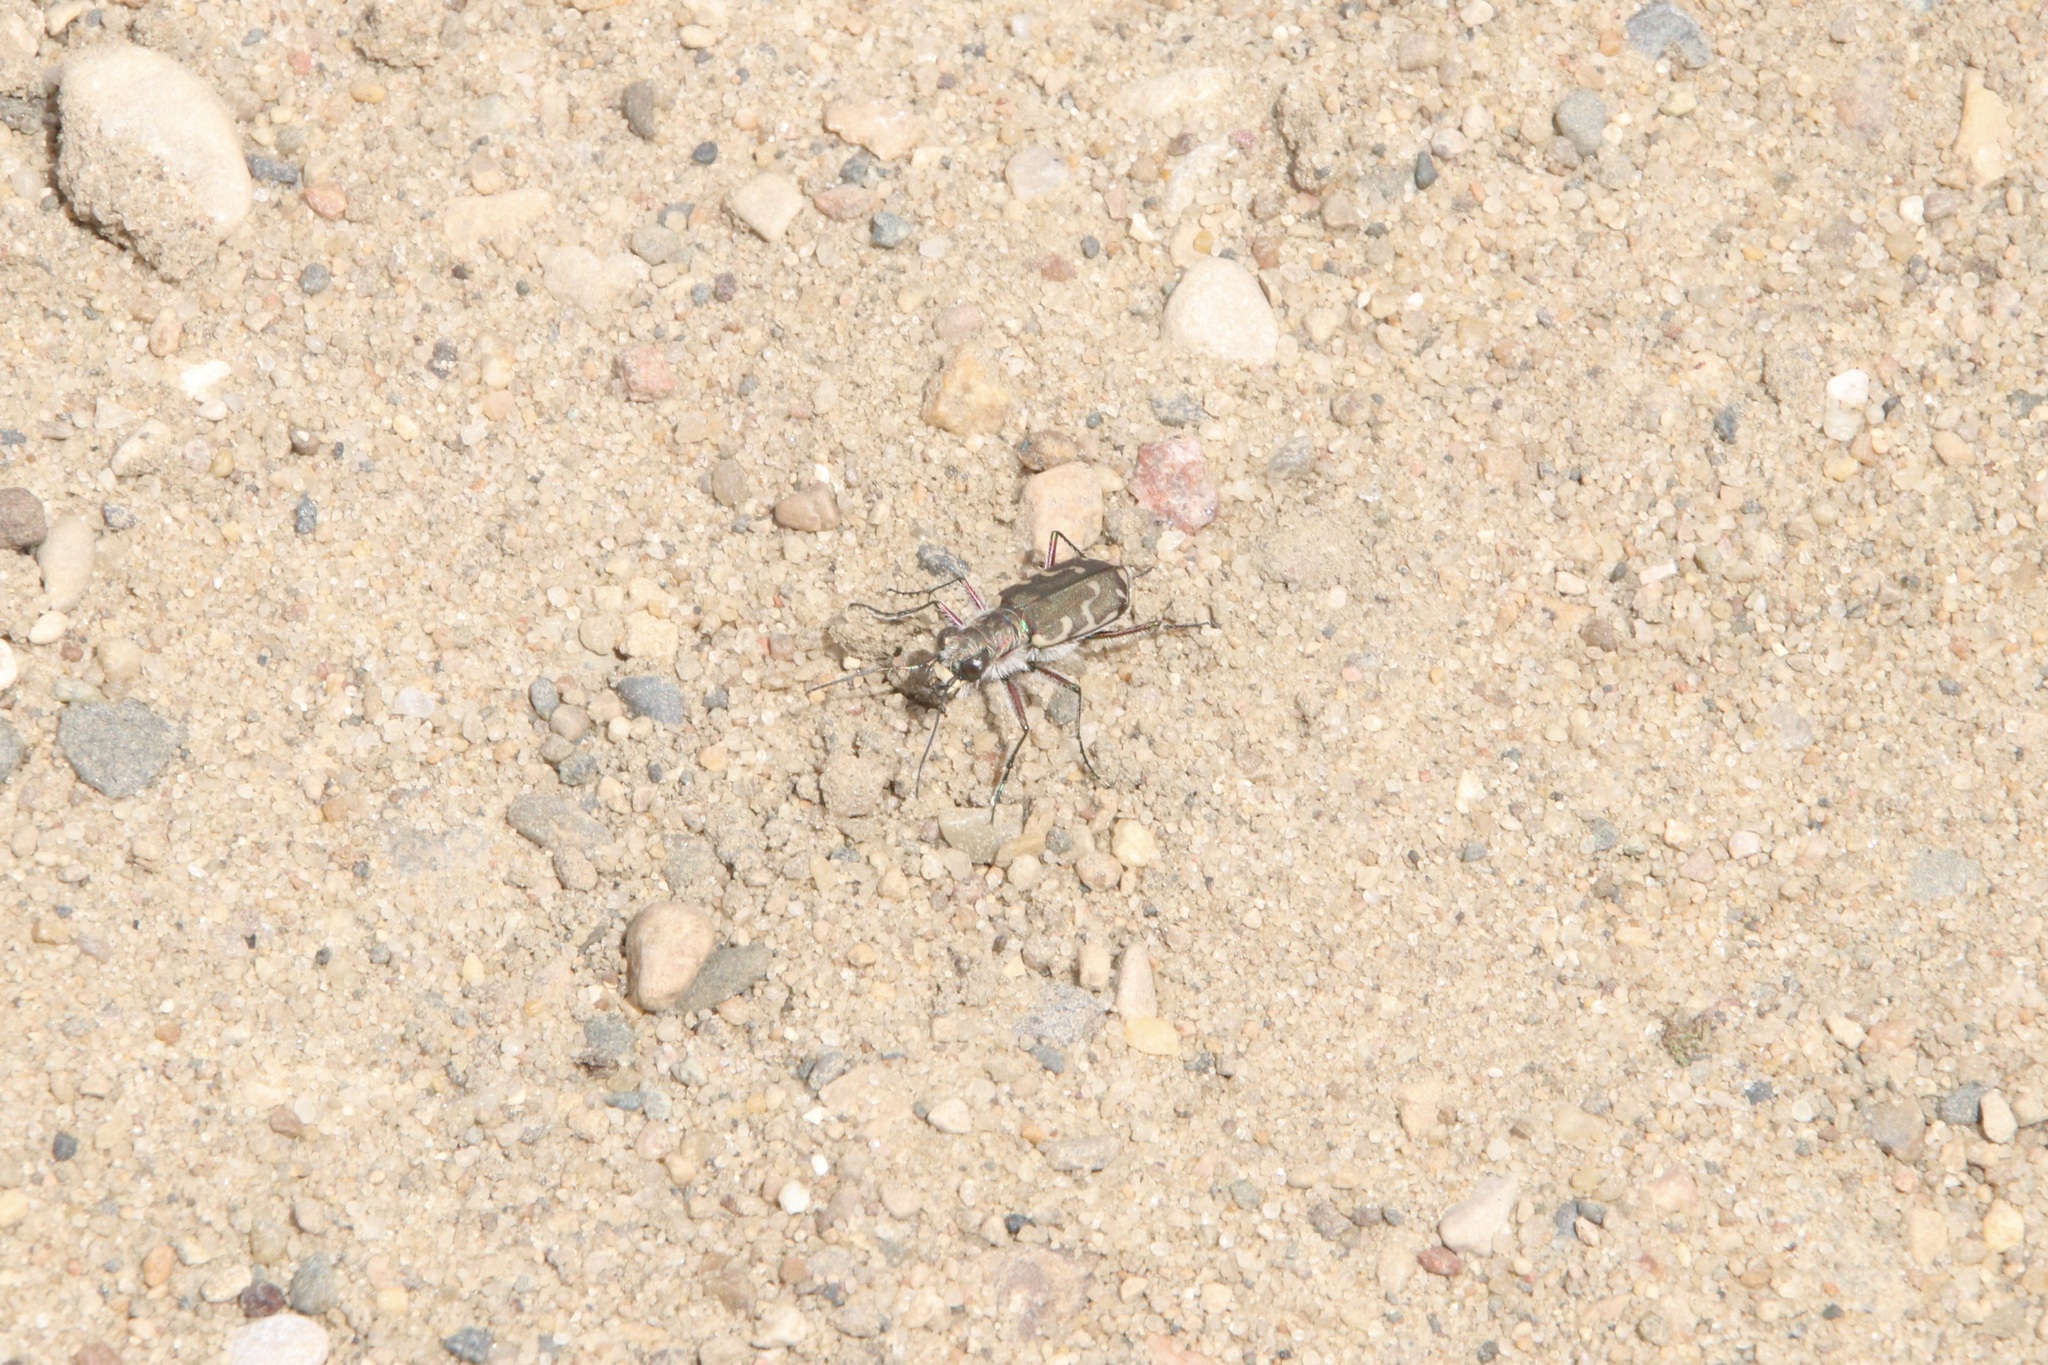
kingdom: Animalia
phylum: Arthropoda
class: Insecta
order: Coleoptera
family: Carabidae
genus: Cicindela
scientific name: Cicindela repanda
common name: Bronzed tiger beetle
